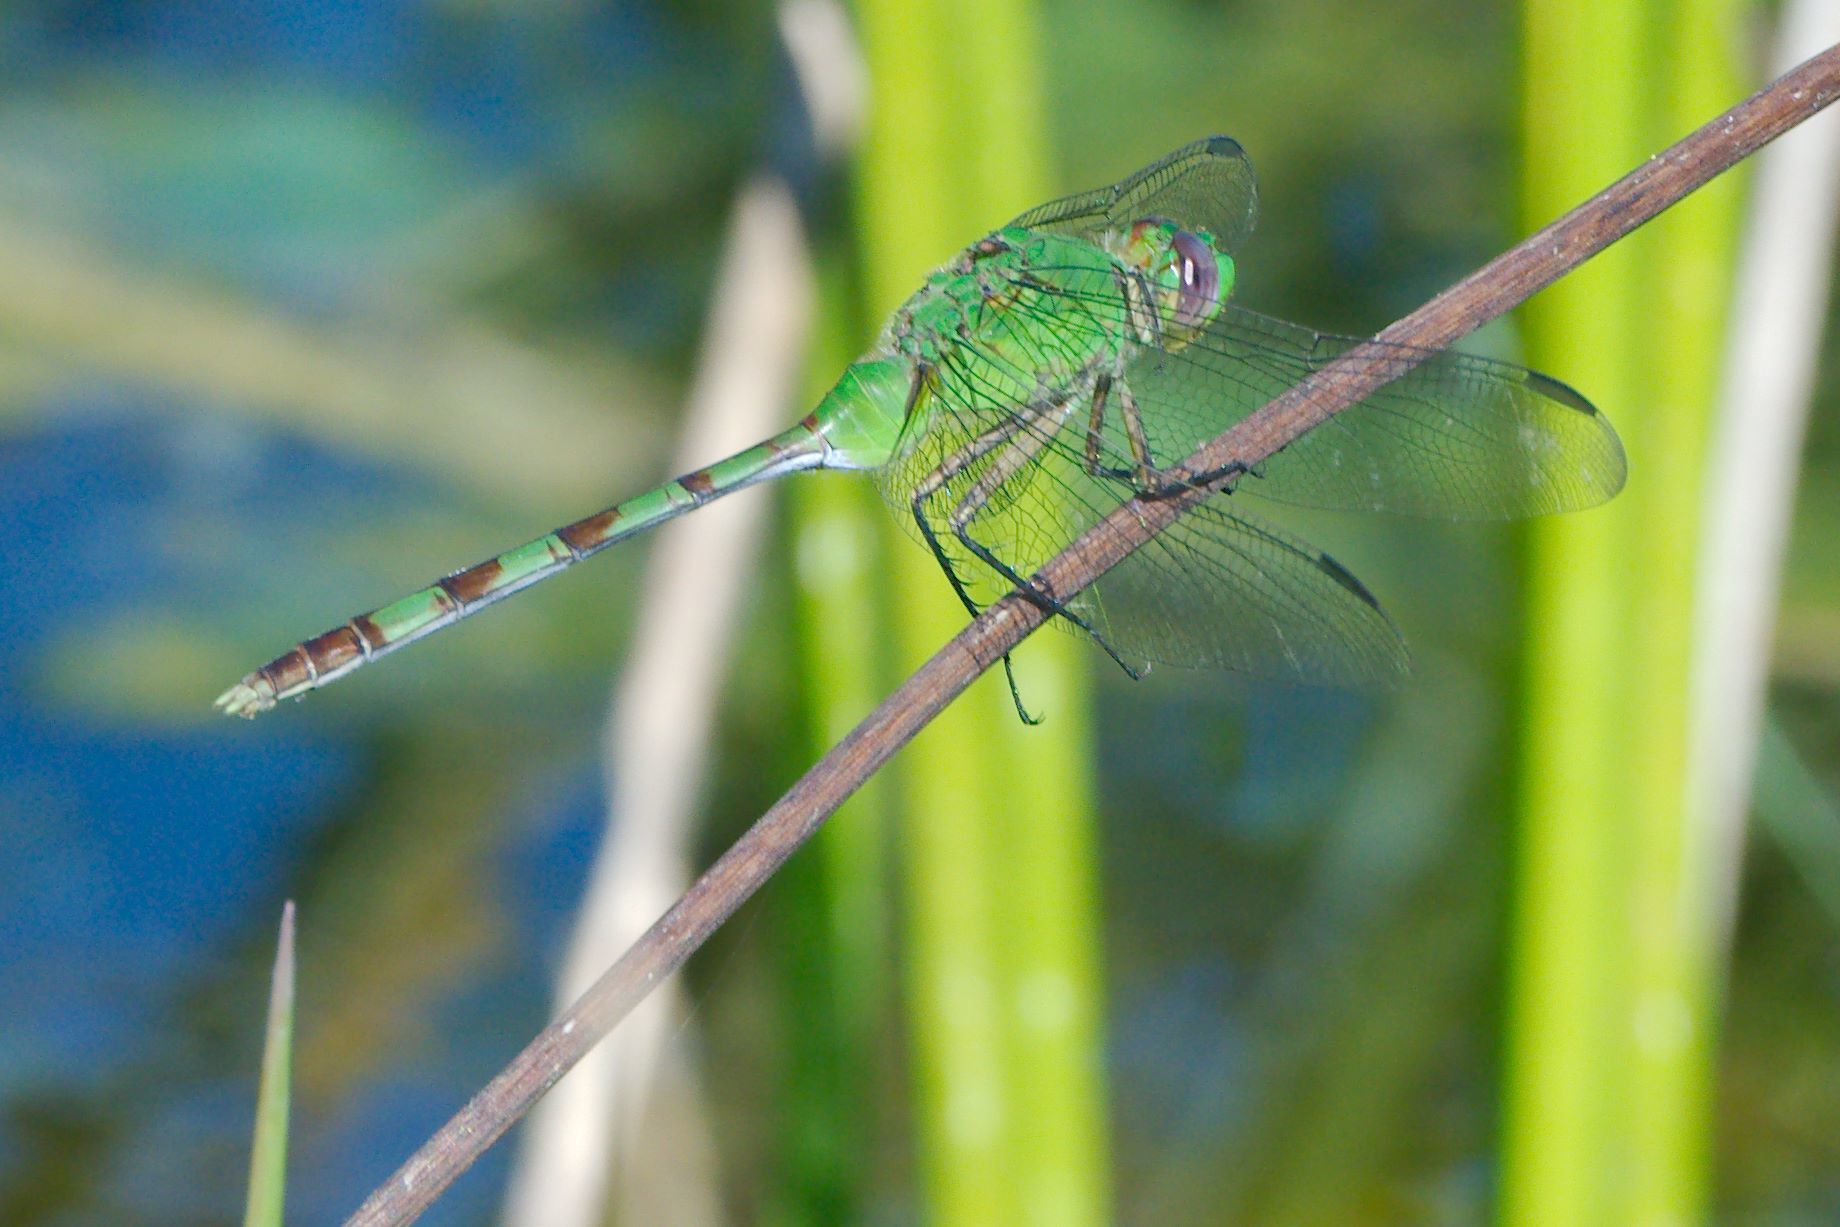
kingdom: Animalia
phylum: Arthropoda
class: Insecta
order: Odonata
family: Libellulidae
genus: Erythemis
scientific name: Erythemis vesiculosa
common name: Great pondhawk
